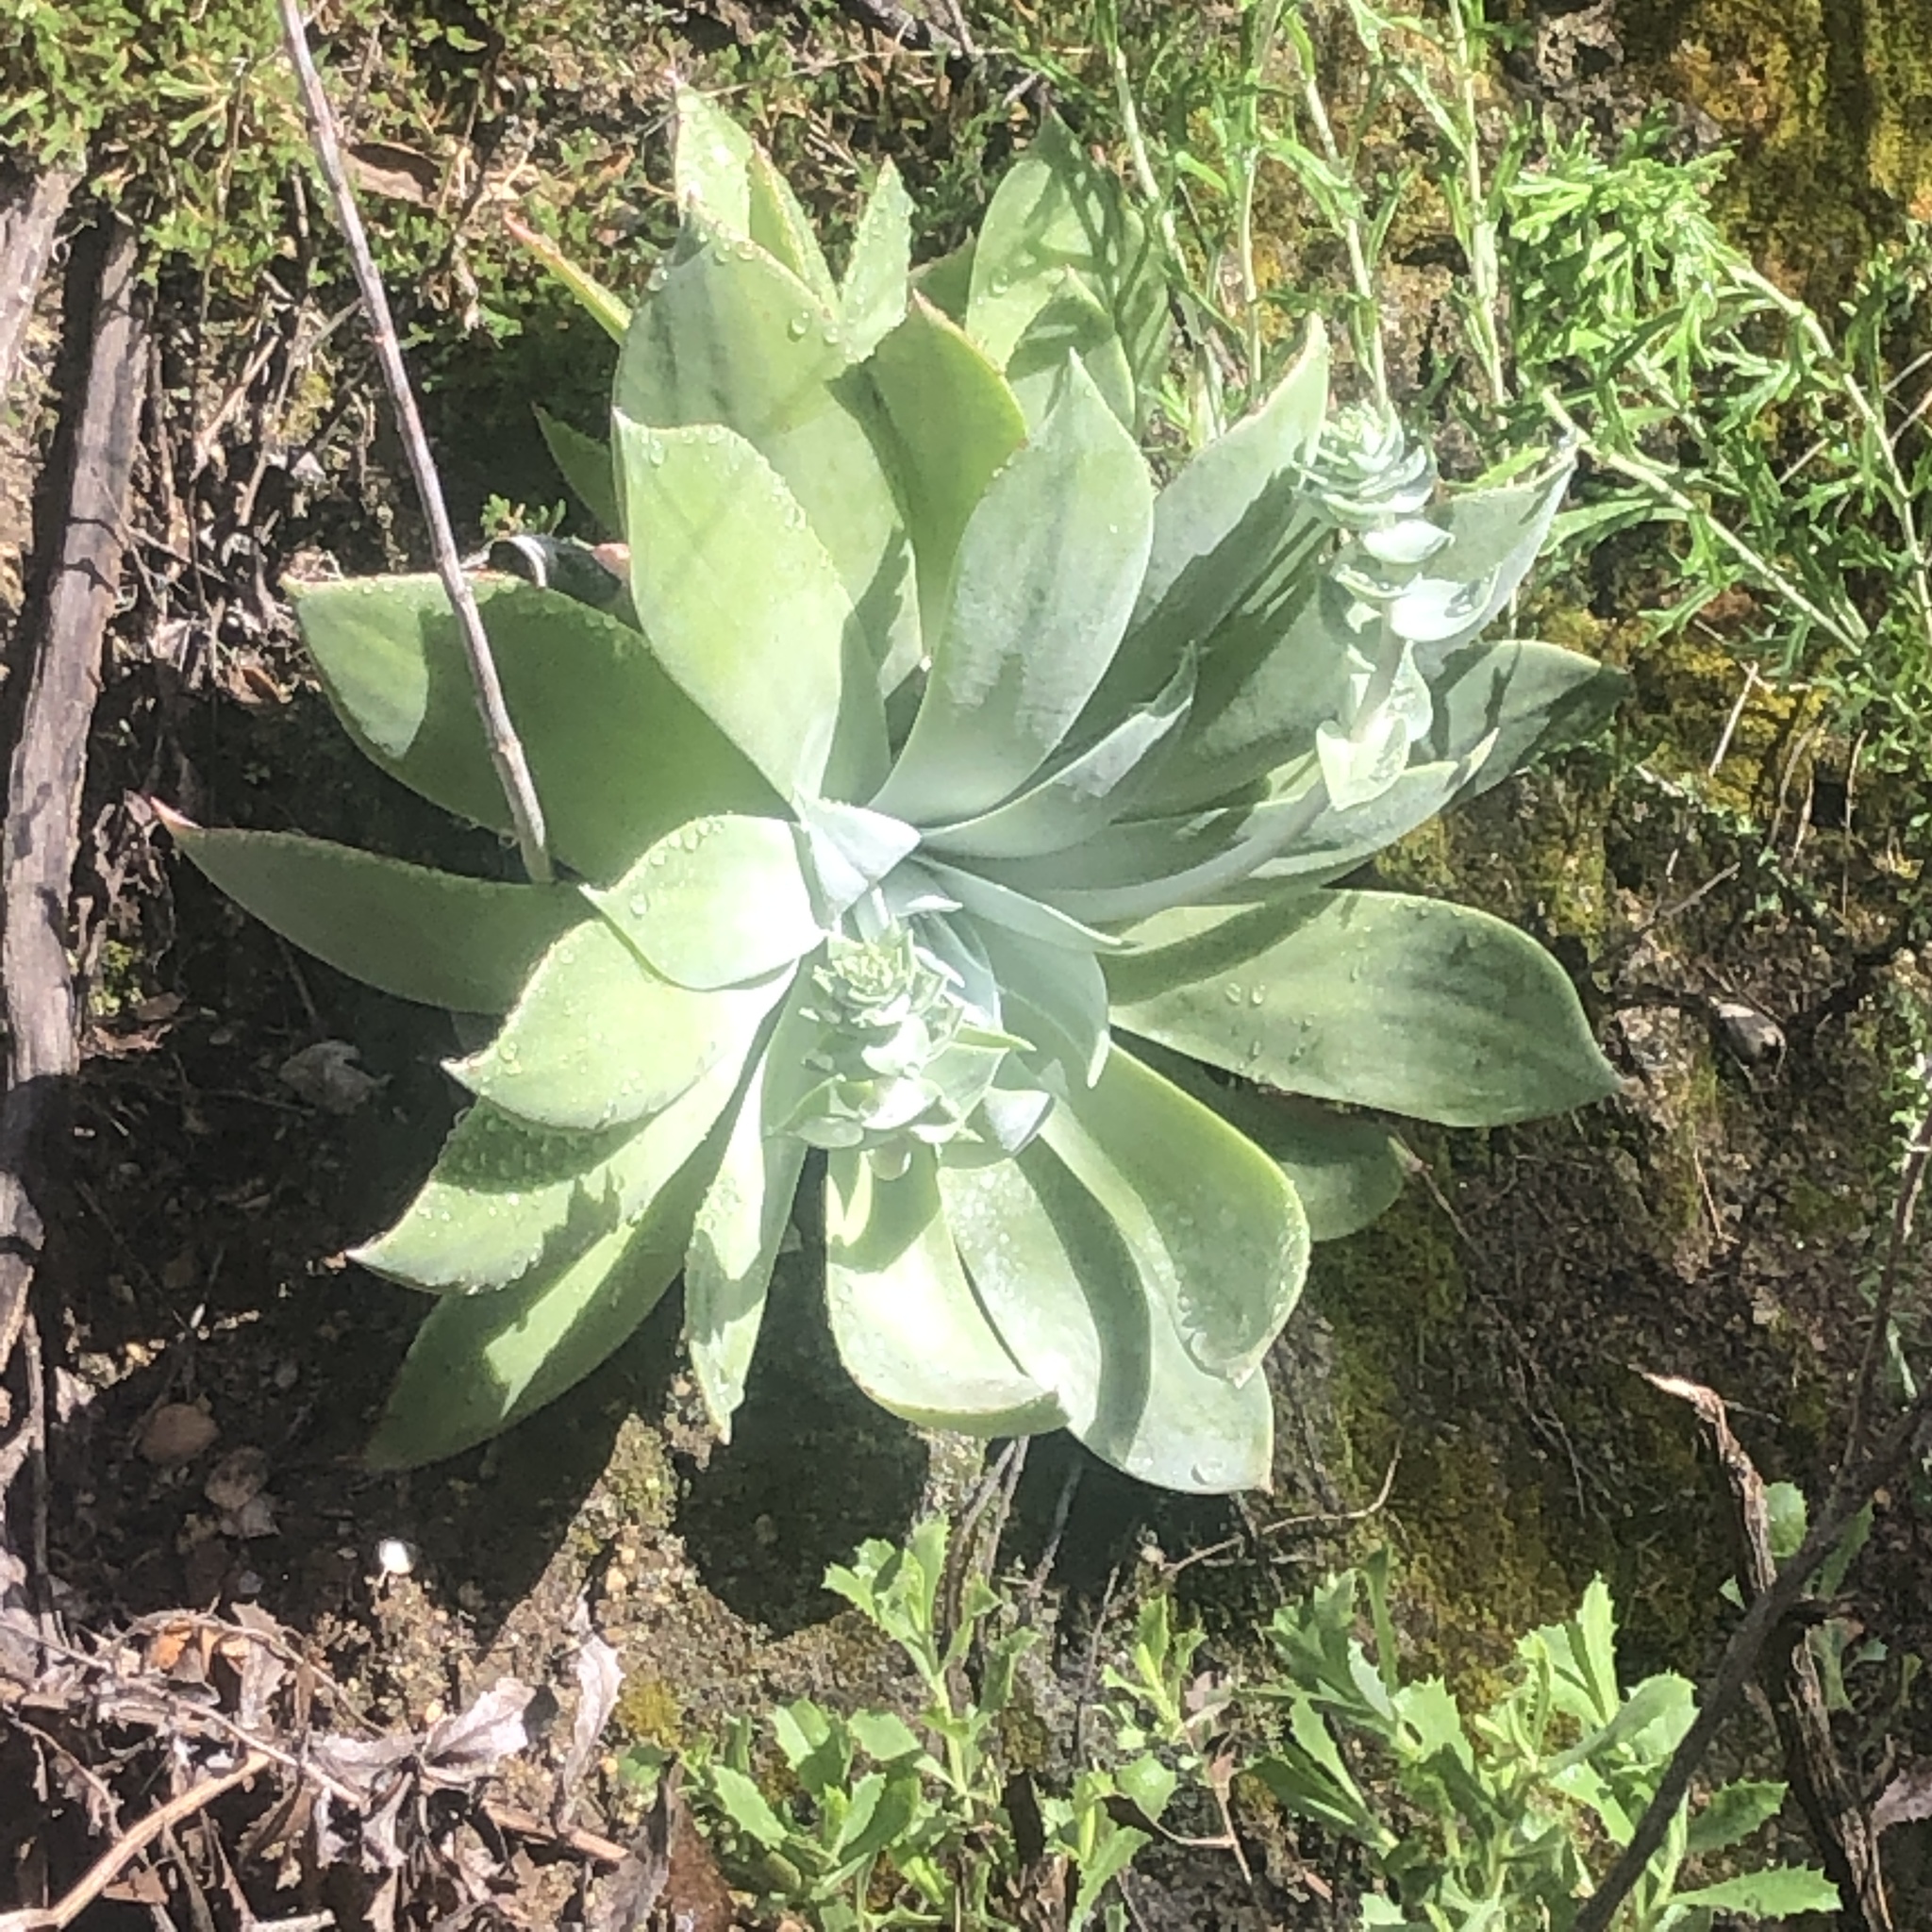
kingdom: Plantae
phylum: Tracheophyta
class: Magnoliopsida
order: Saxifragales
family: Crassulaceae
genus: Dudleya
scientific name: Dudleya pulverulenta
